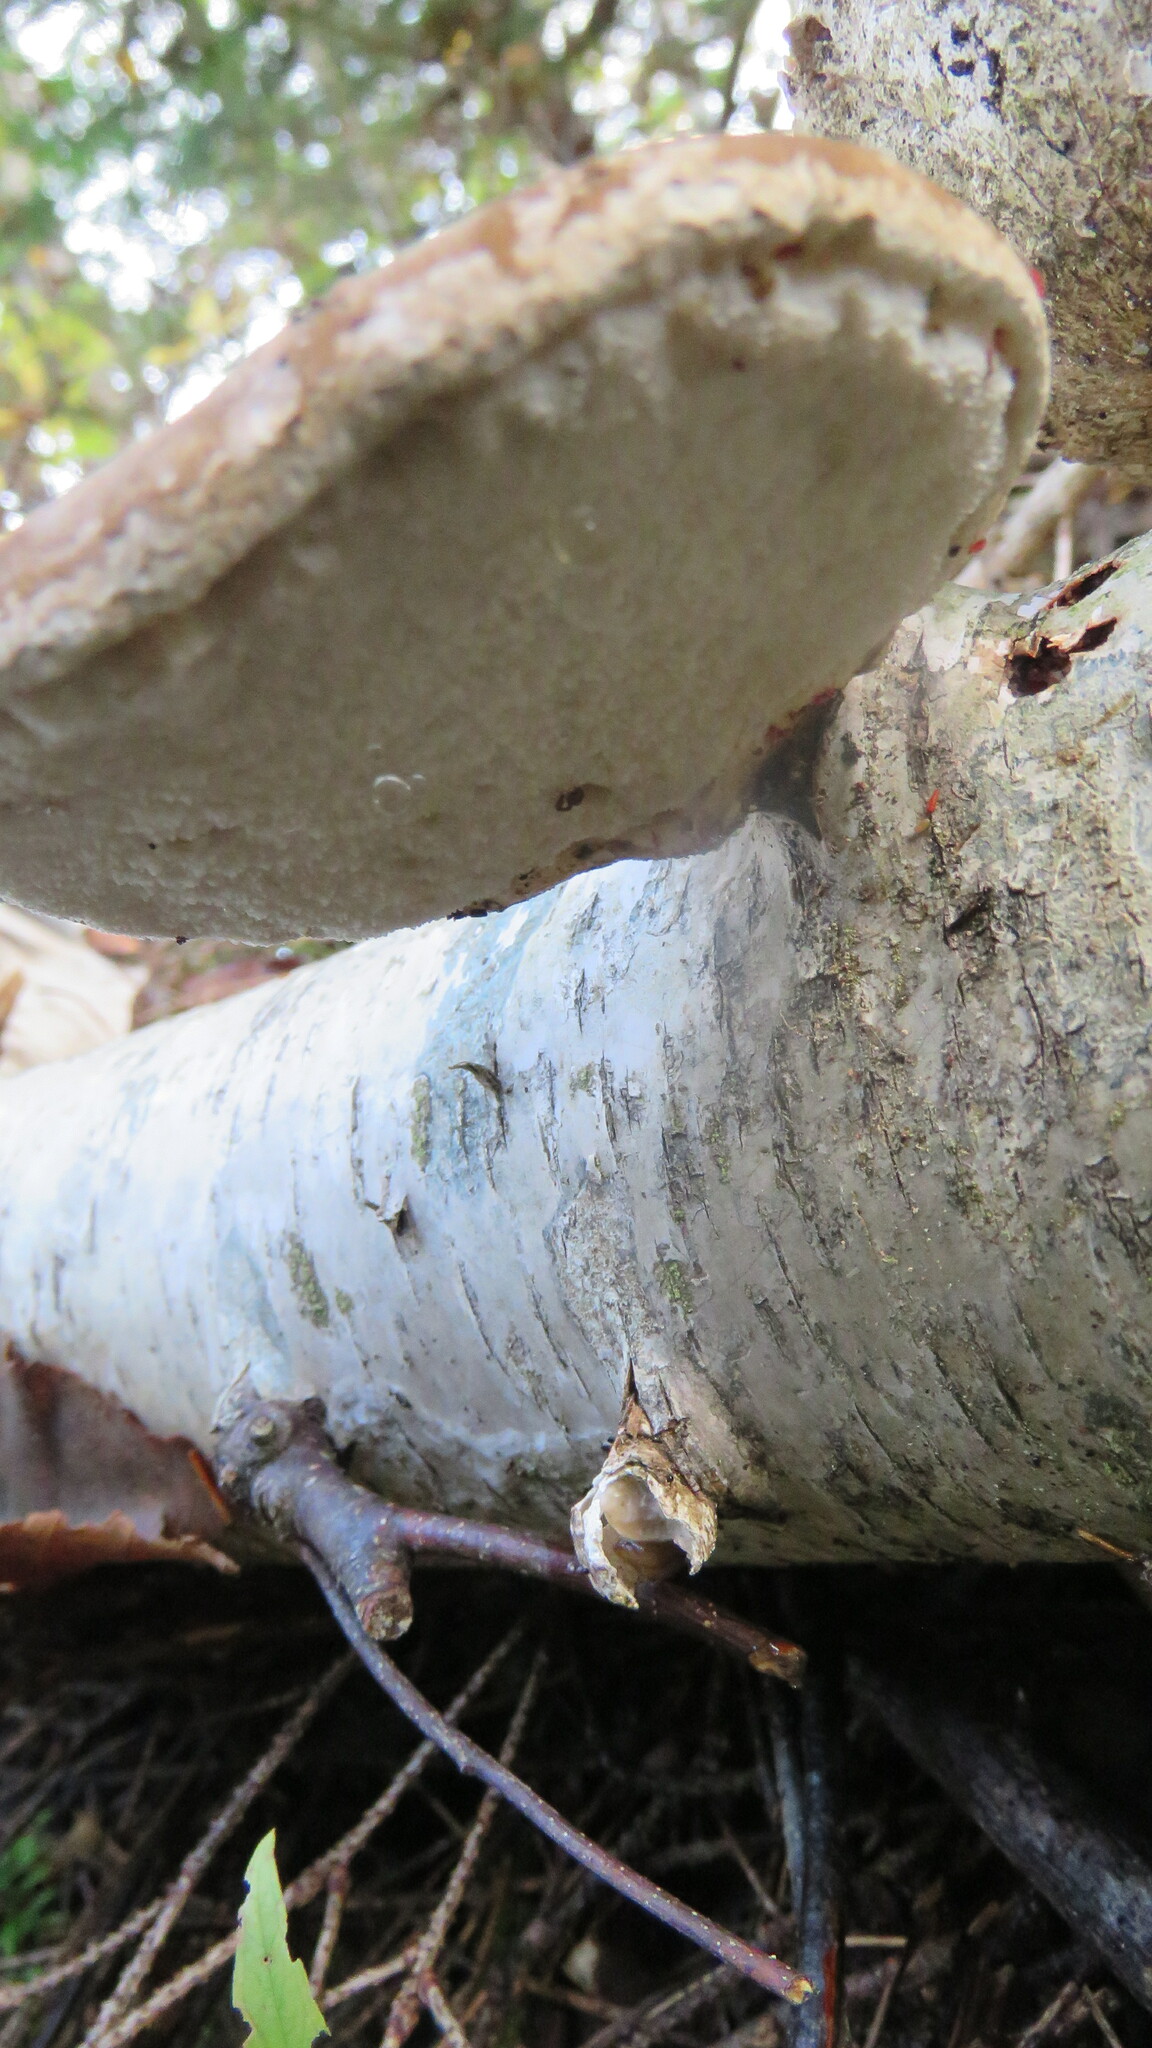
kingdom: Fungi
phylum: Basidiomycota
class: Agaricomycetes
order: Polyporales
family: Fomitopsidaceae
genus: Fomitopsis
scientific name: Fomitopsis betulina
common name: Birch polypore
